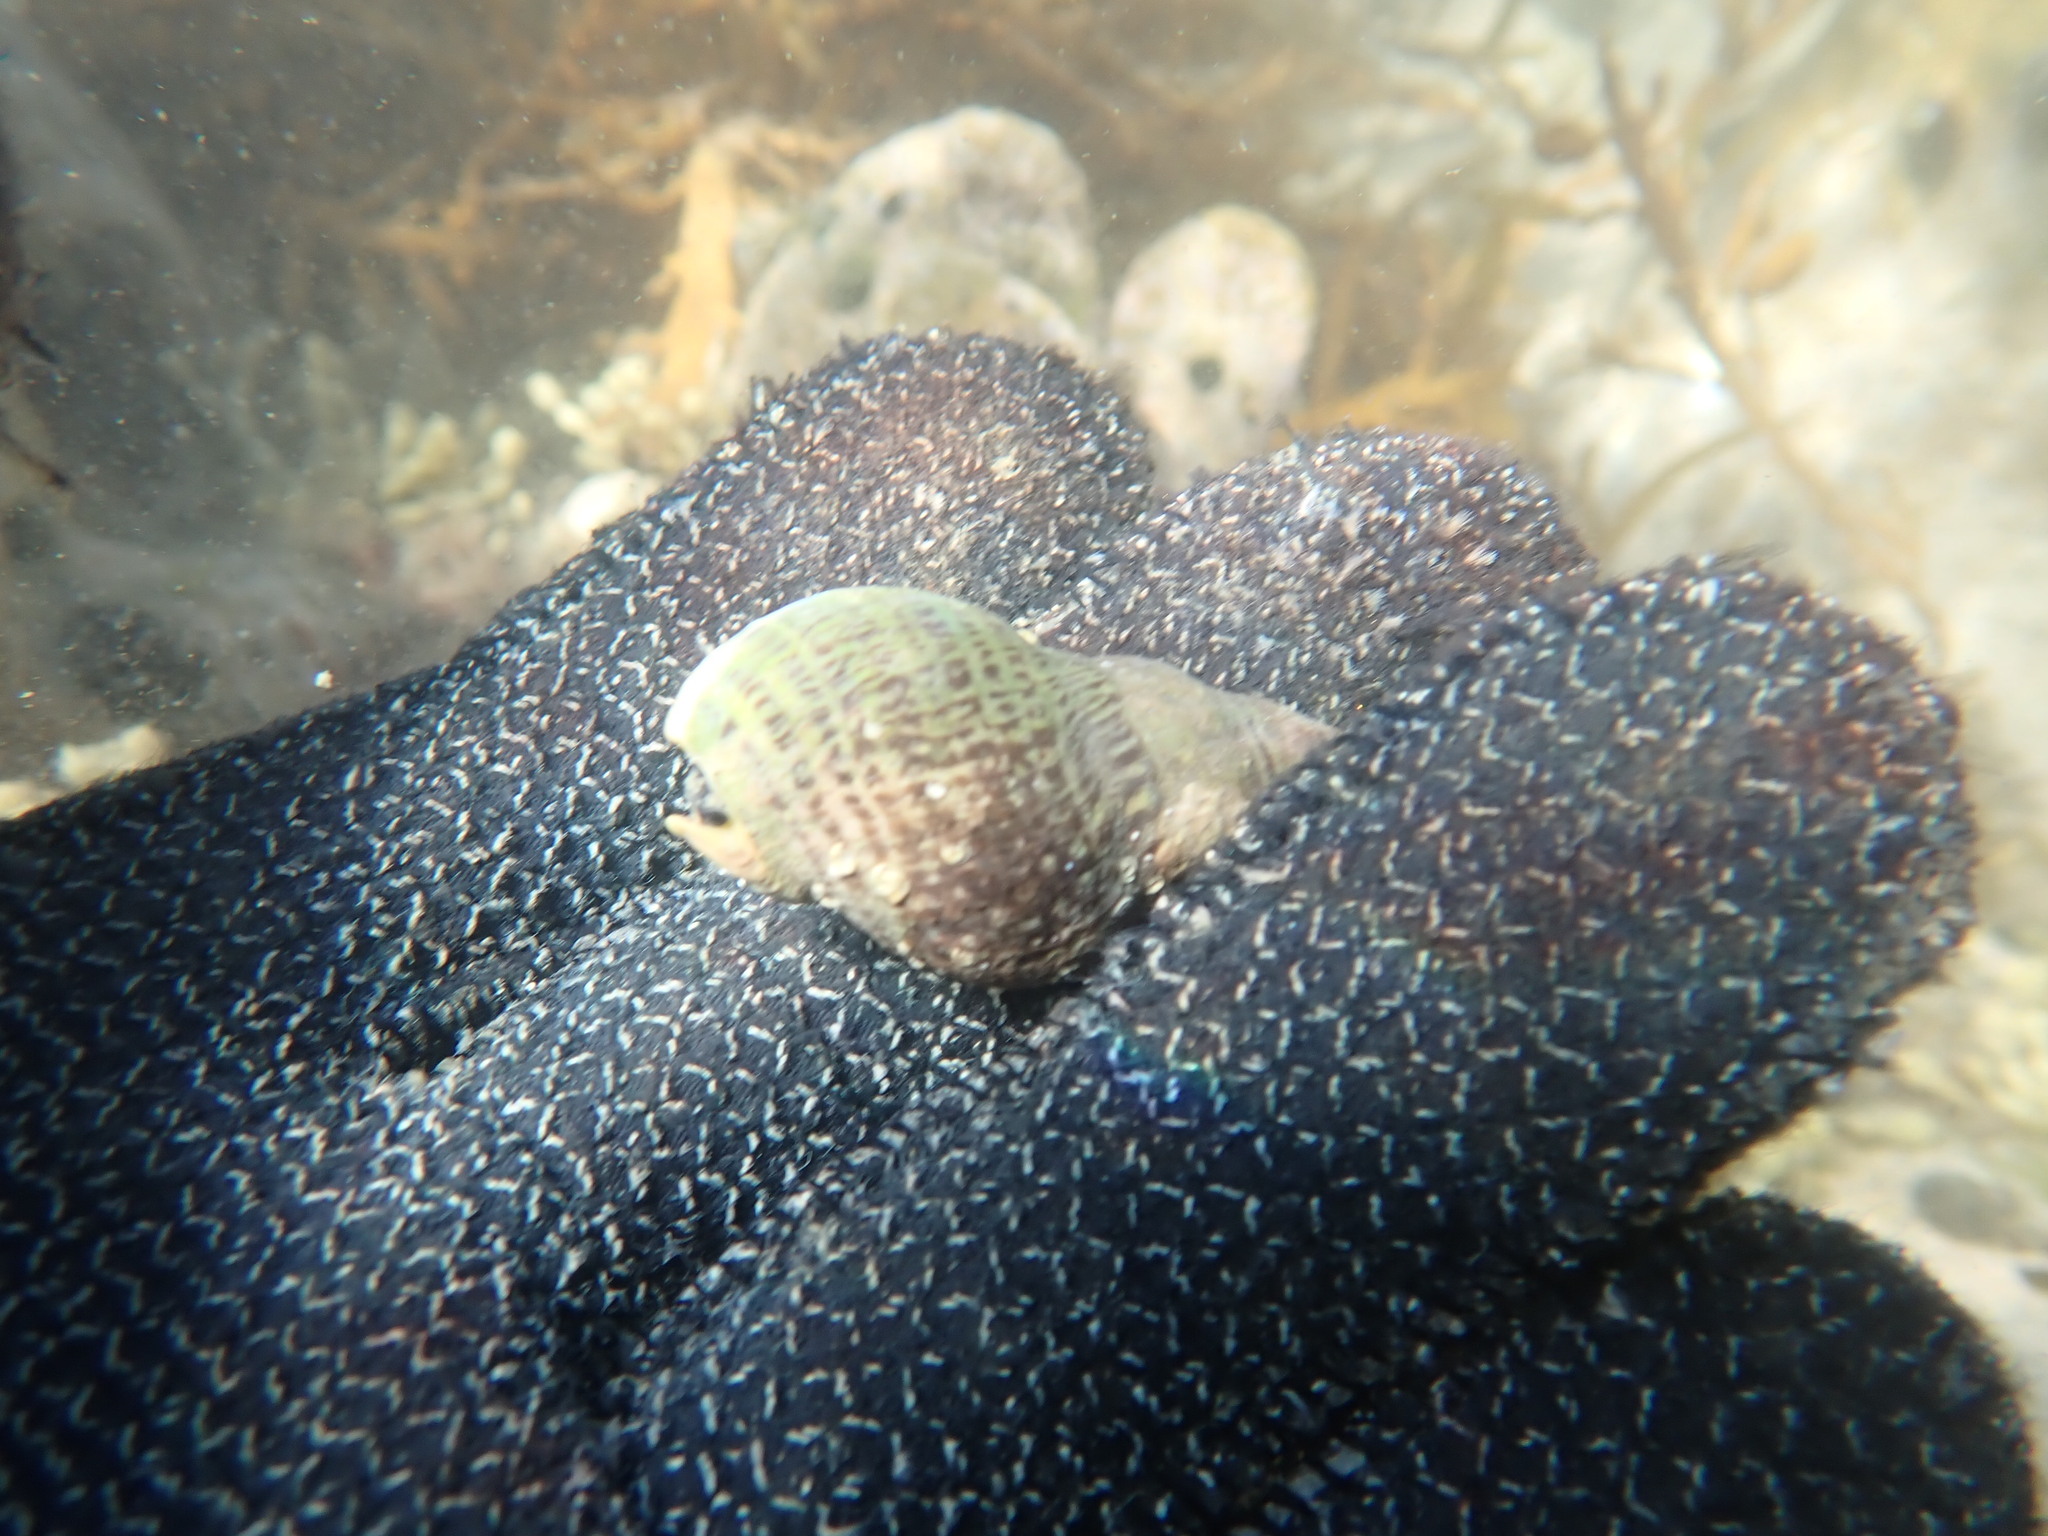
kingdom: Animalia
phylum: Mollusca
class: Gastropoda
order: Neogastropoda
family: Cominellidae
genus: Cominella
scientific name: Cominella maculosa
